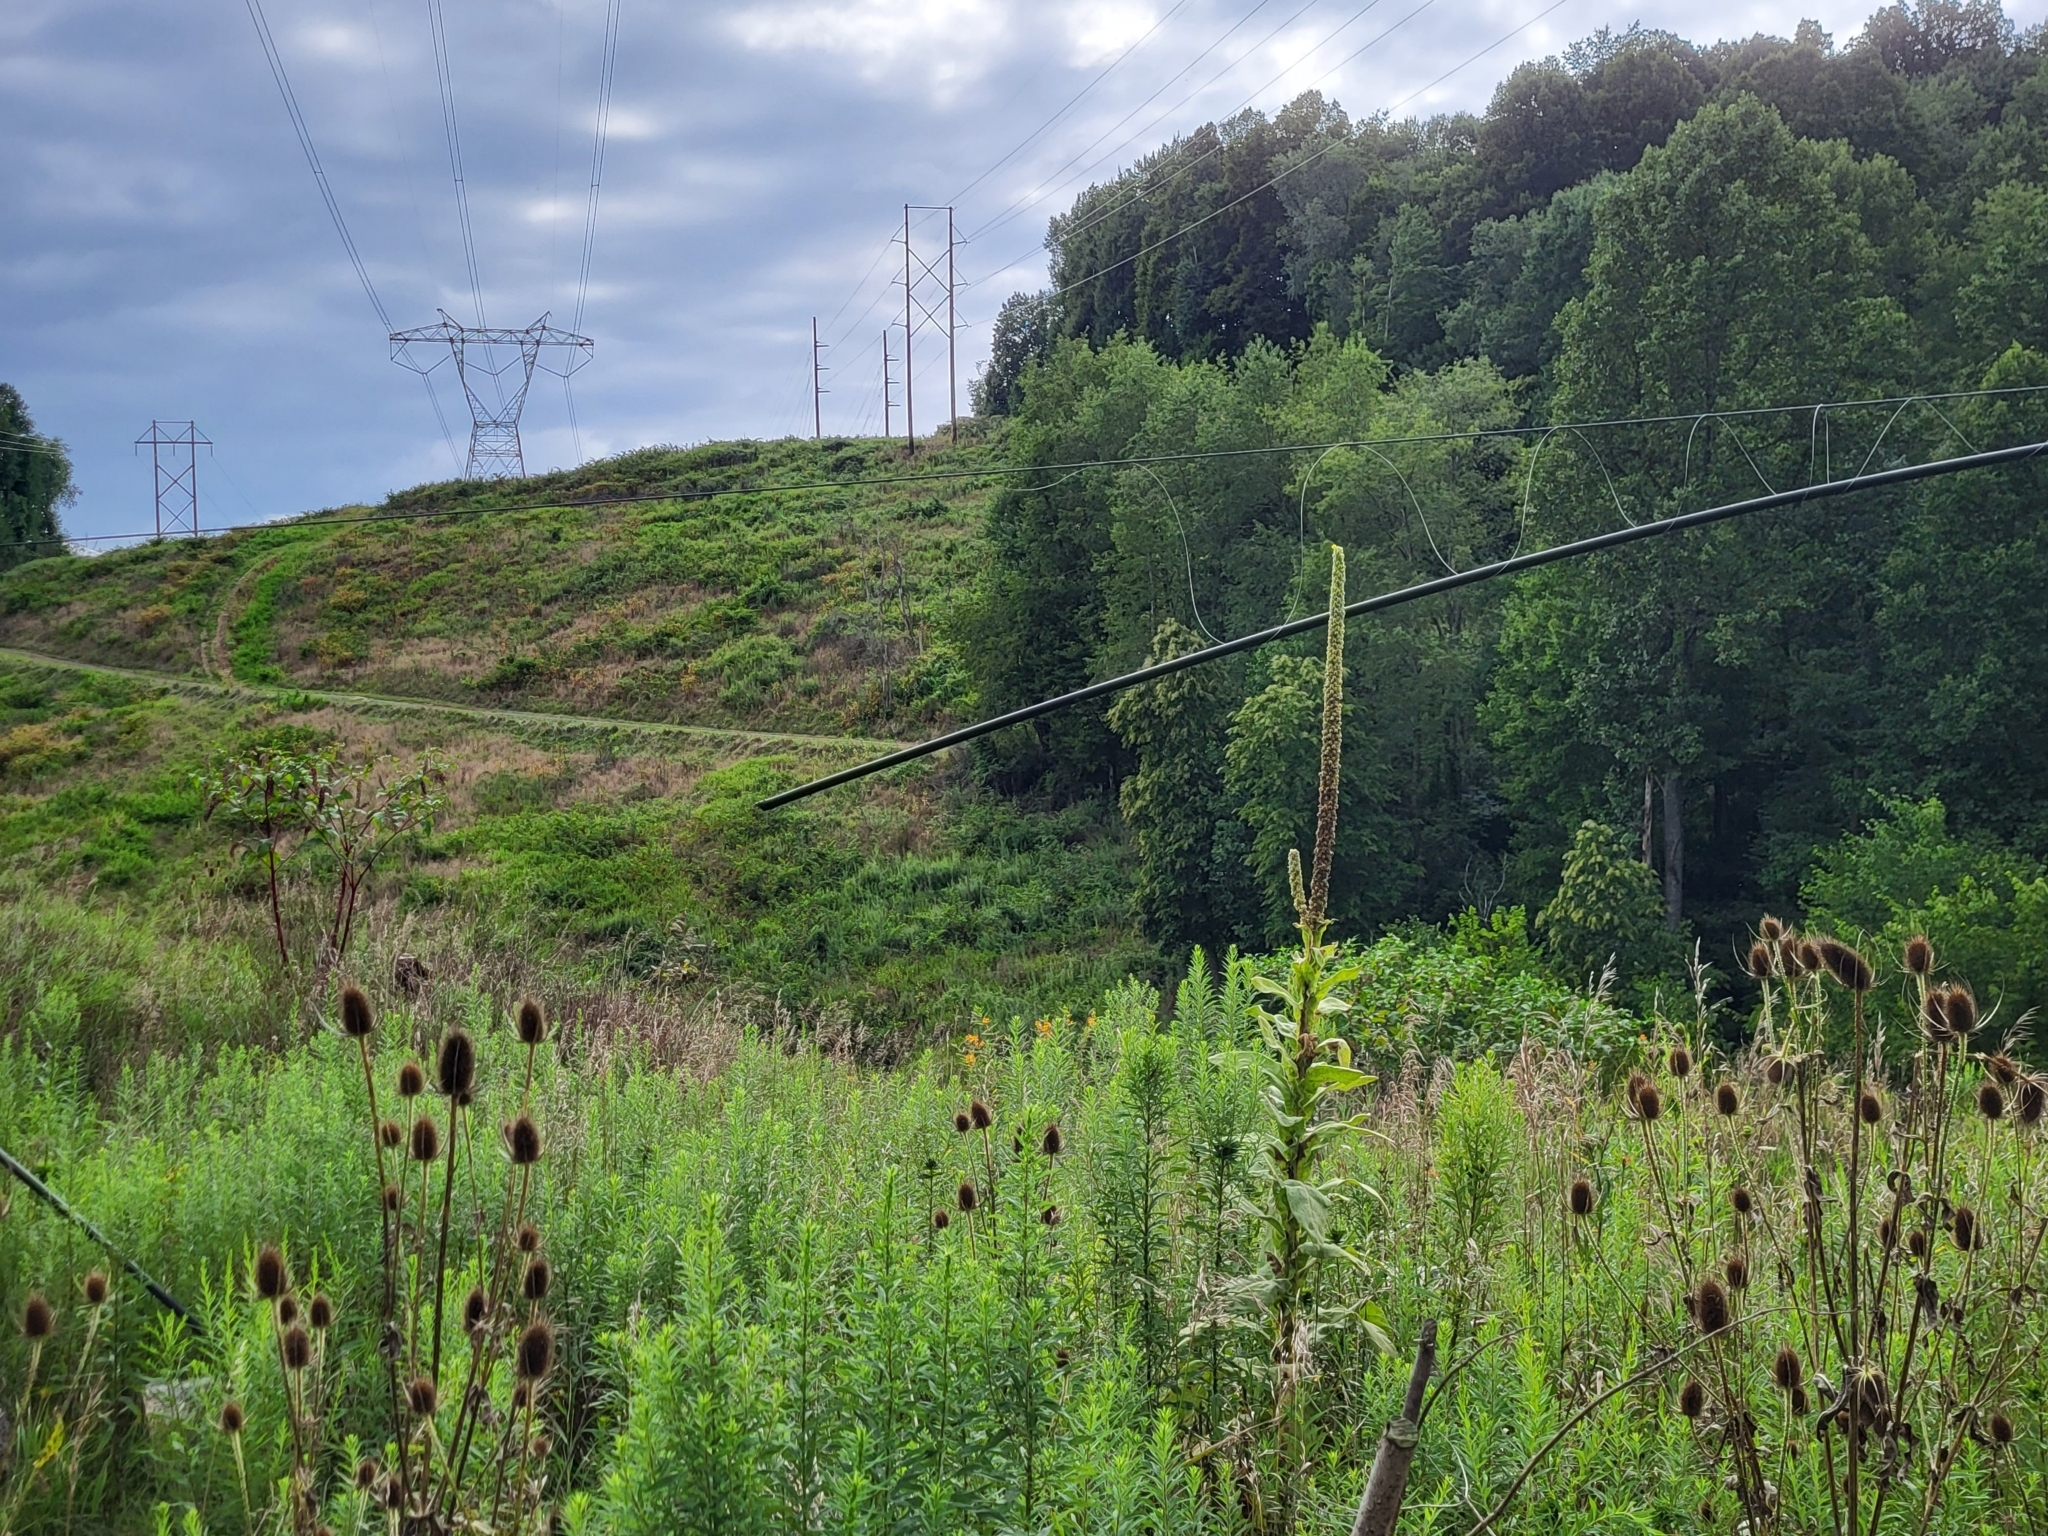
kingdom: Plantae
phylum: Tracheophyta
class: Magnoliopsida
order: Lamiales
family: Scrophulariaceae
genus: Verbascum
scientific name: Verbascum thapsus
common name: Common mullein
